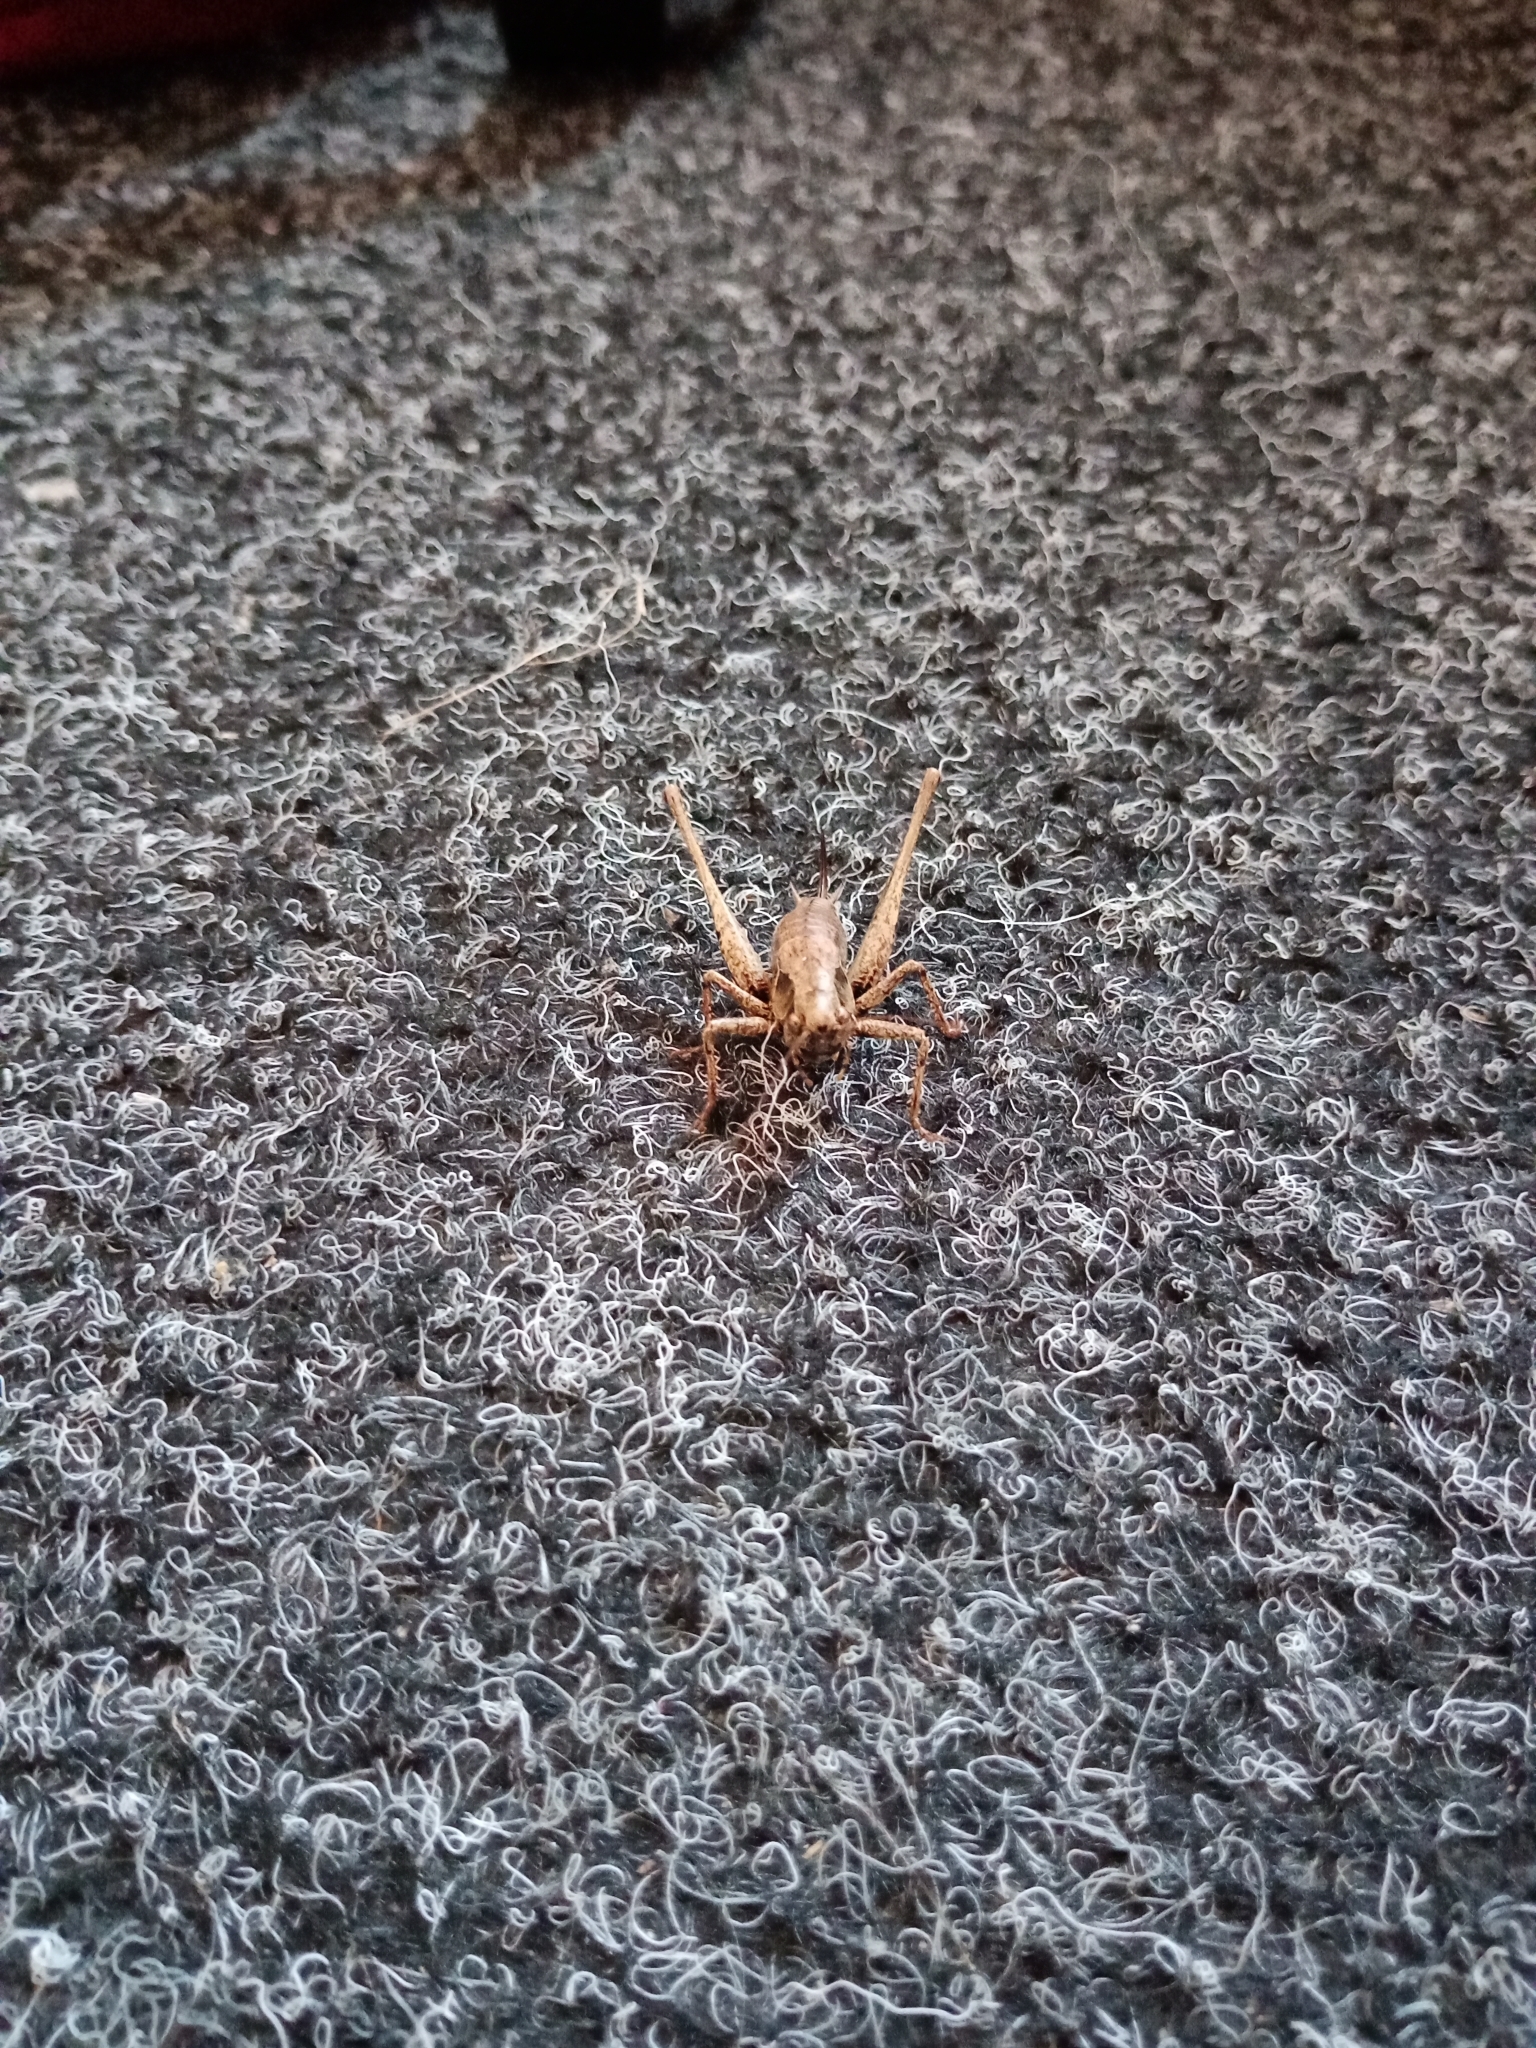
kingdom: Animalia
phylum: Arthropoda
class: Insecta
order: Orthoptera
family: Tettigoniidae
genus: Pholidoptera
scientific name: Pholidoptera griseoaptera
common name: Dark bush-cricket
